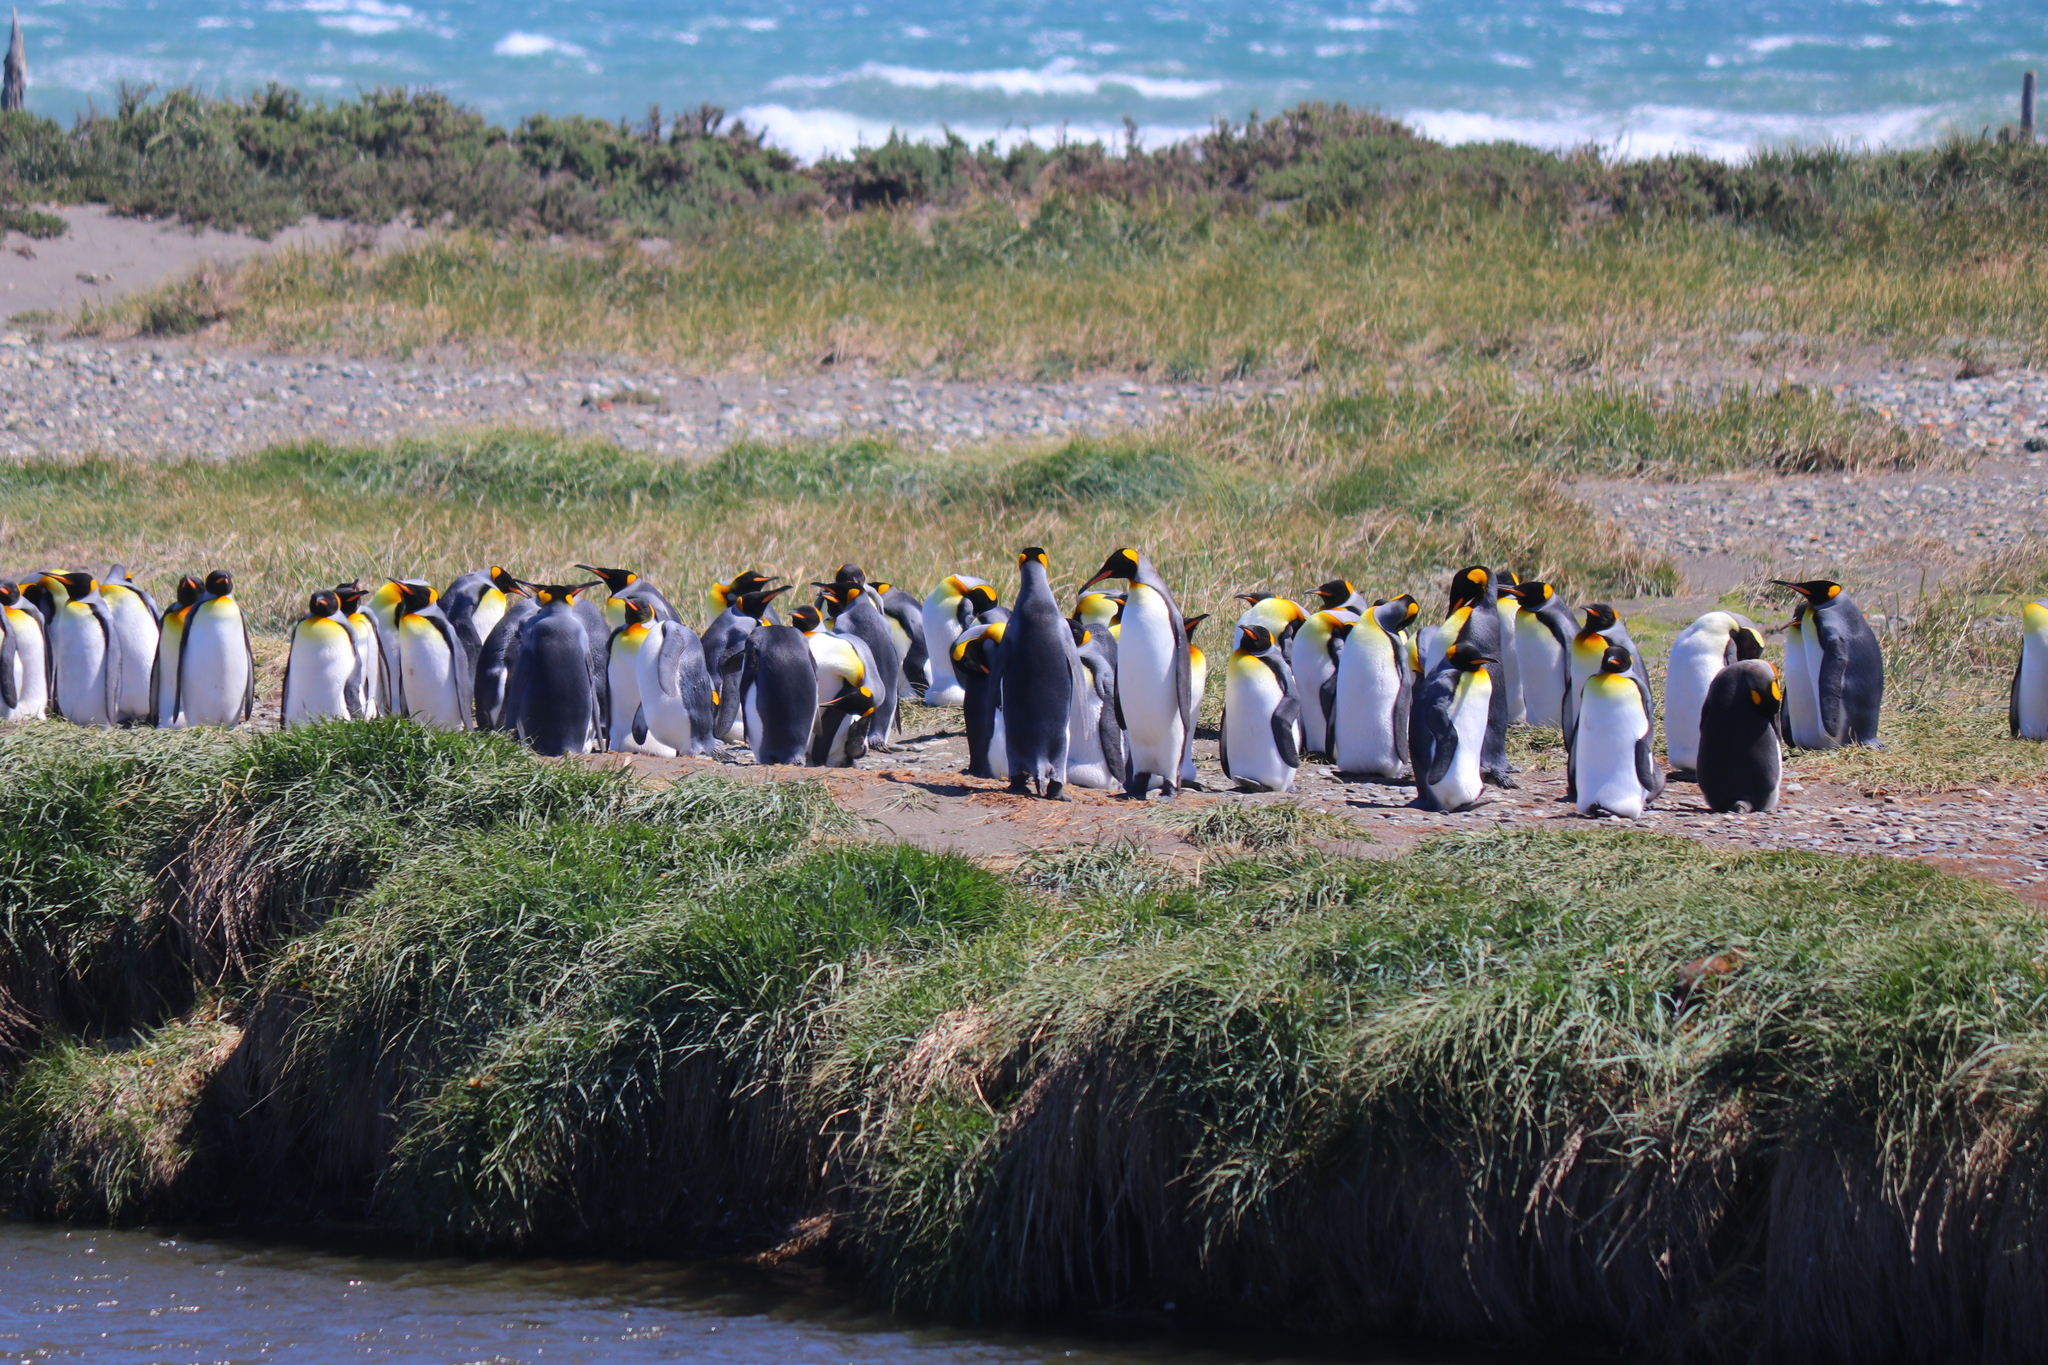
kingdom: Animalia
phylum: Chordata
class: Aves
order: Sphenisciformes
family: Spheniscidae
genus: Aptenodytes
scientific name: Aptenodytes patagonicus
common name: King penguin
